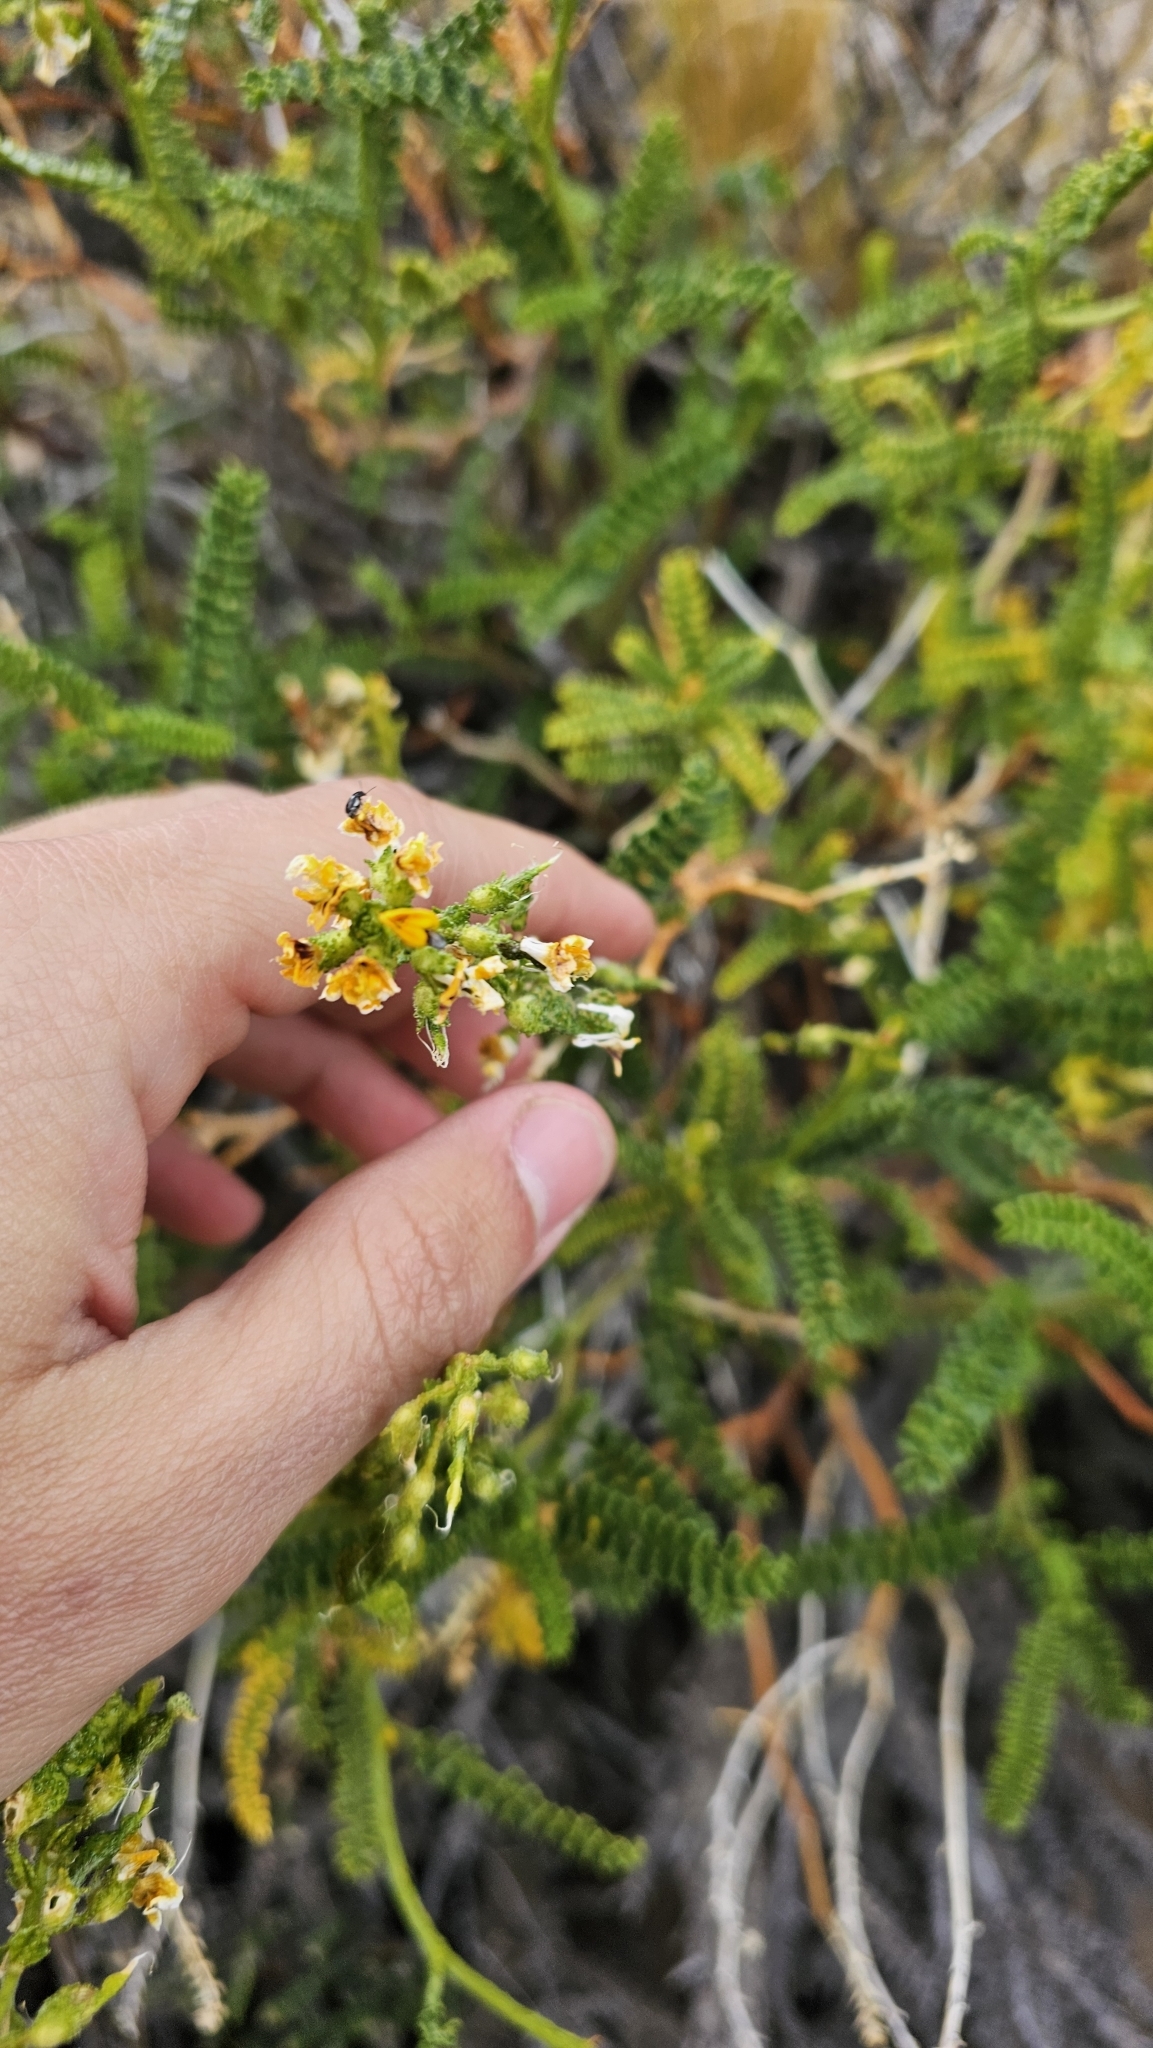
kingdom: Plantae
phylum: Tracheophyta
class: Magnoliopsida
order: Fabales
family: Fabaceae
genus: Adesmia
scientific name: Adesmia boronioides
